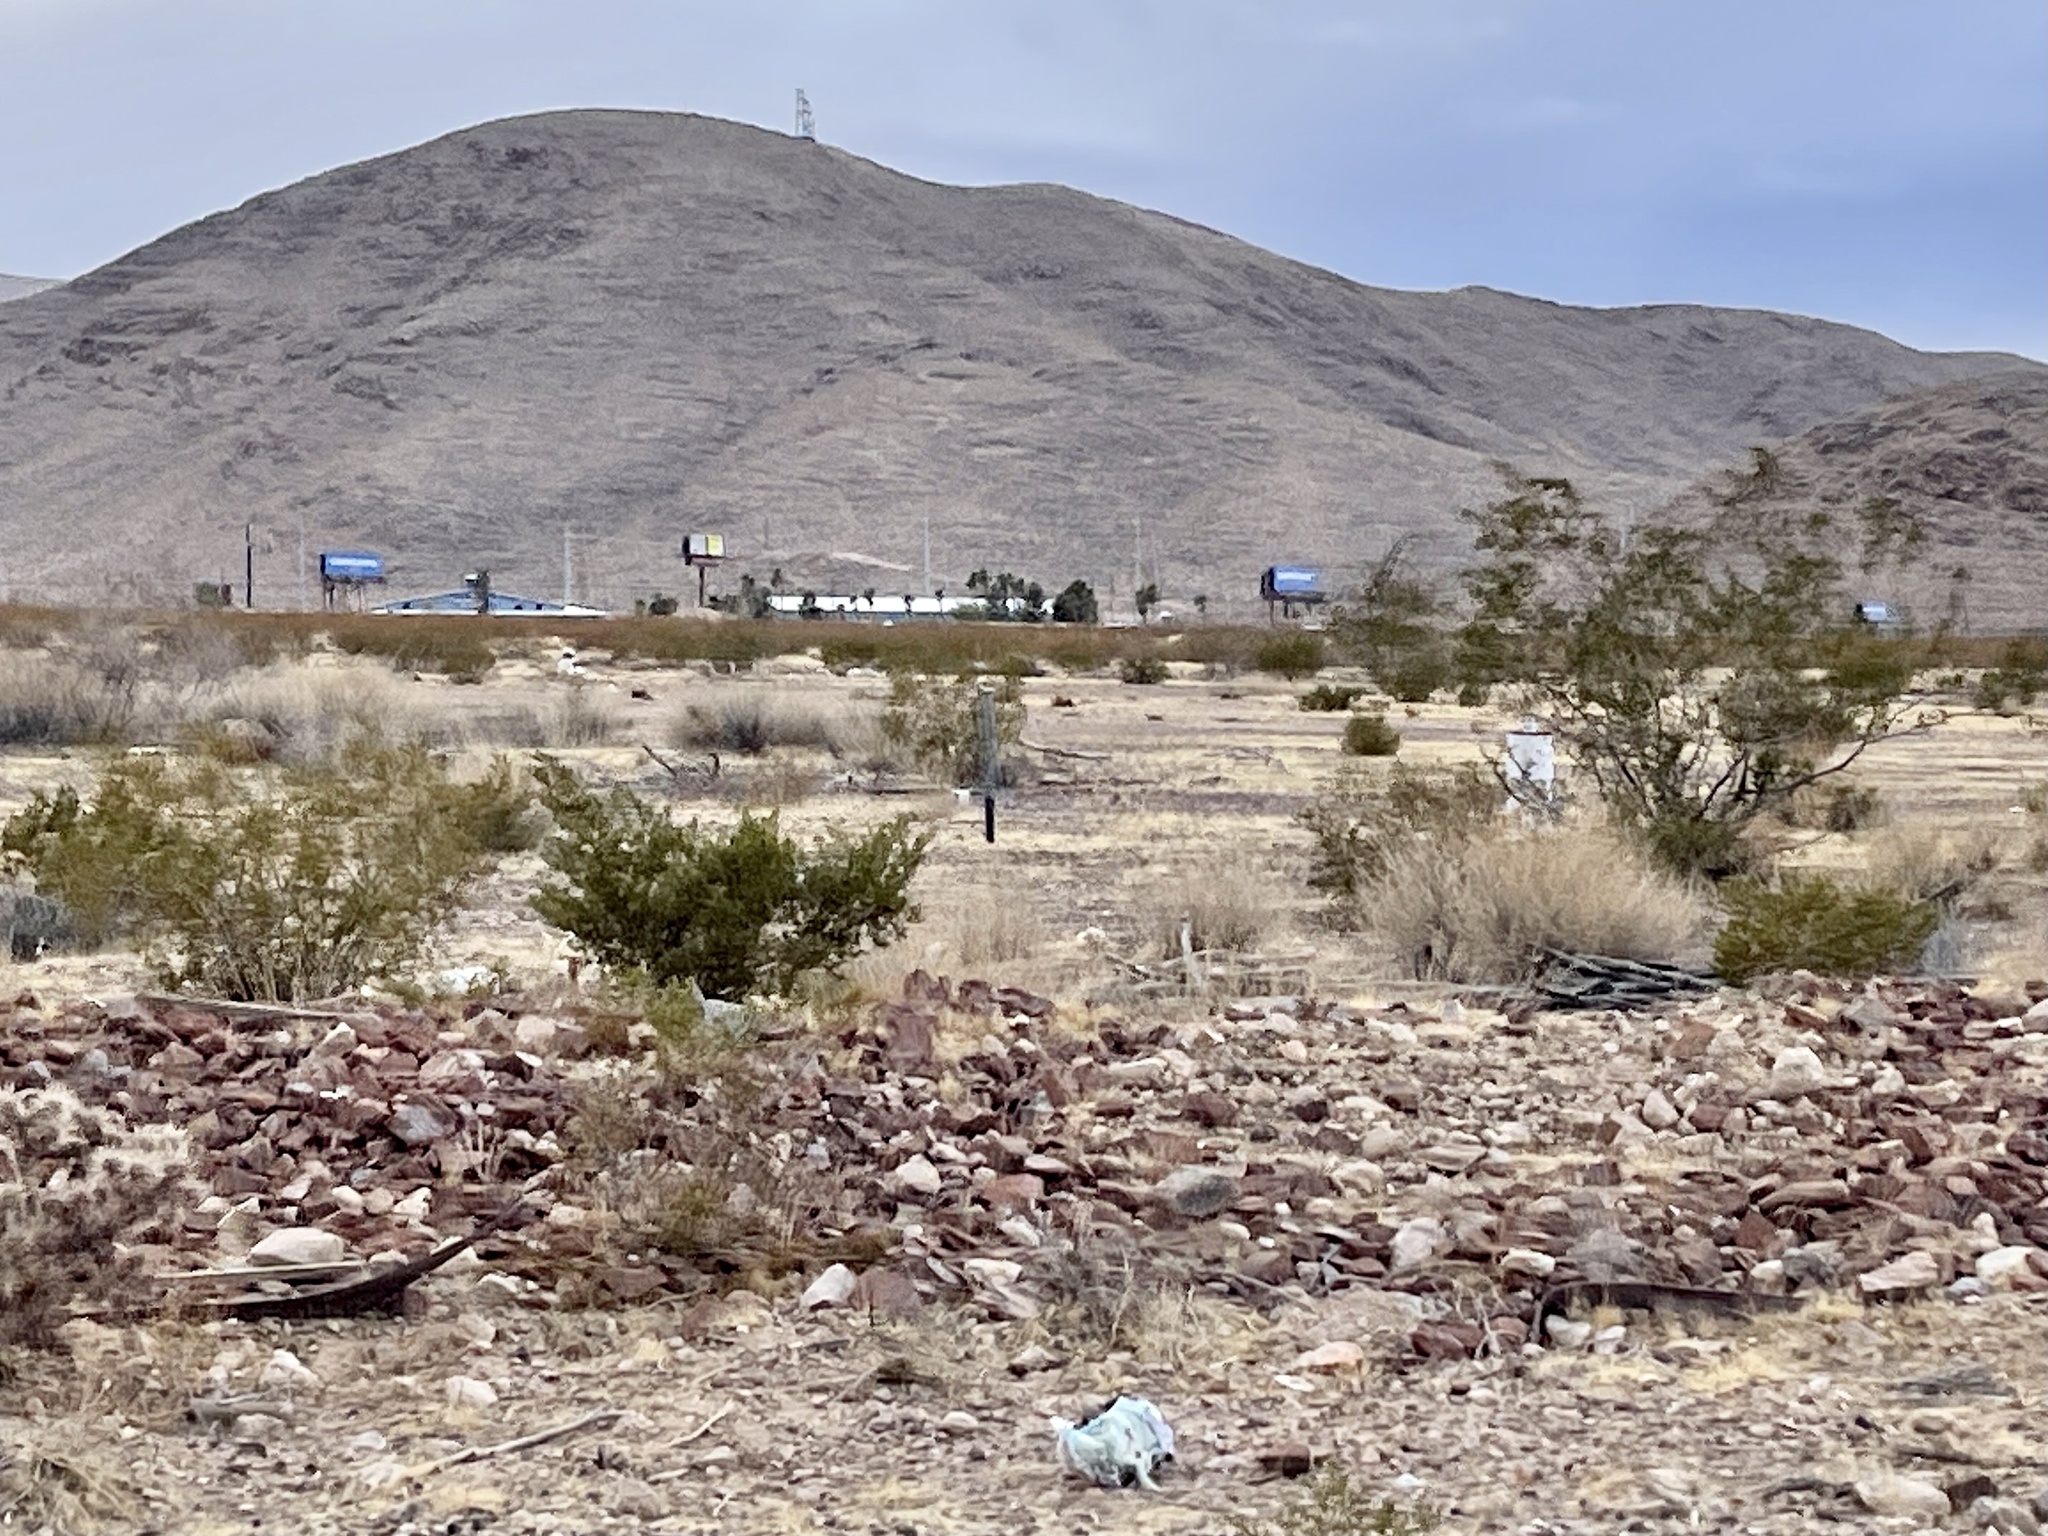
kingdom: Plantae
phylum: Tracheophyta
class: Magnoliopsida
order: Zygophyllales
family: Zygophyllaceae
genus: Larrea
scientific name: Larrea tridentata
